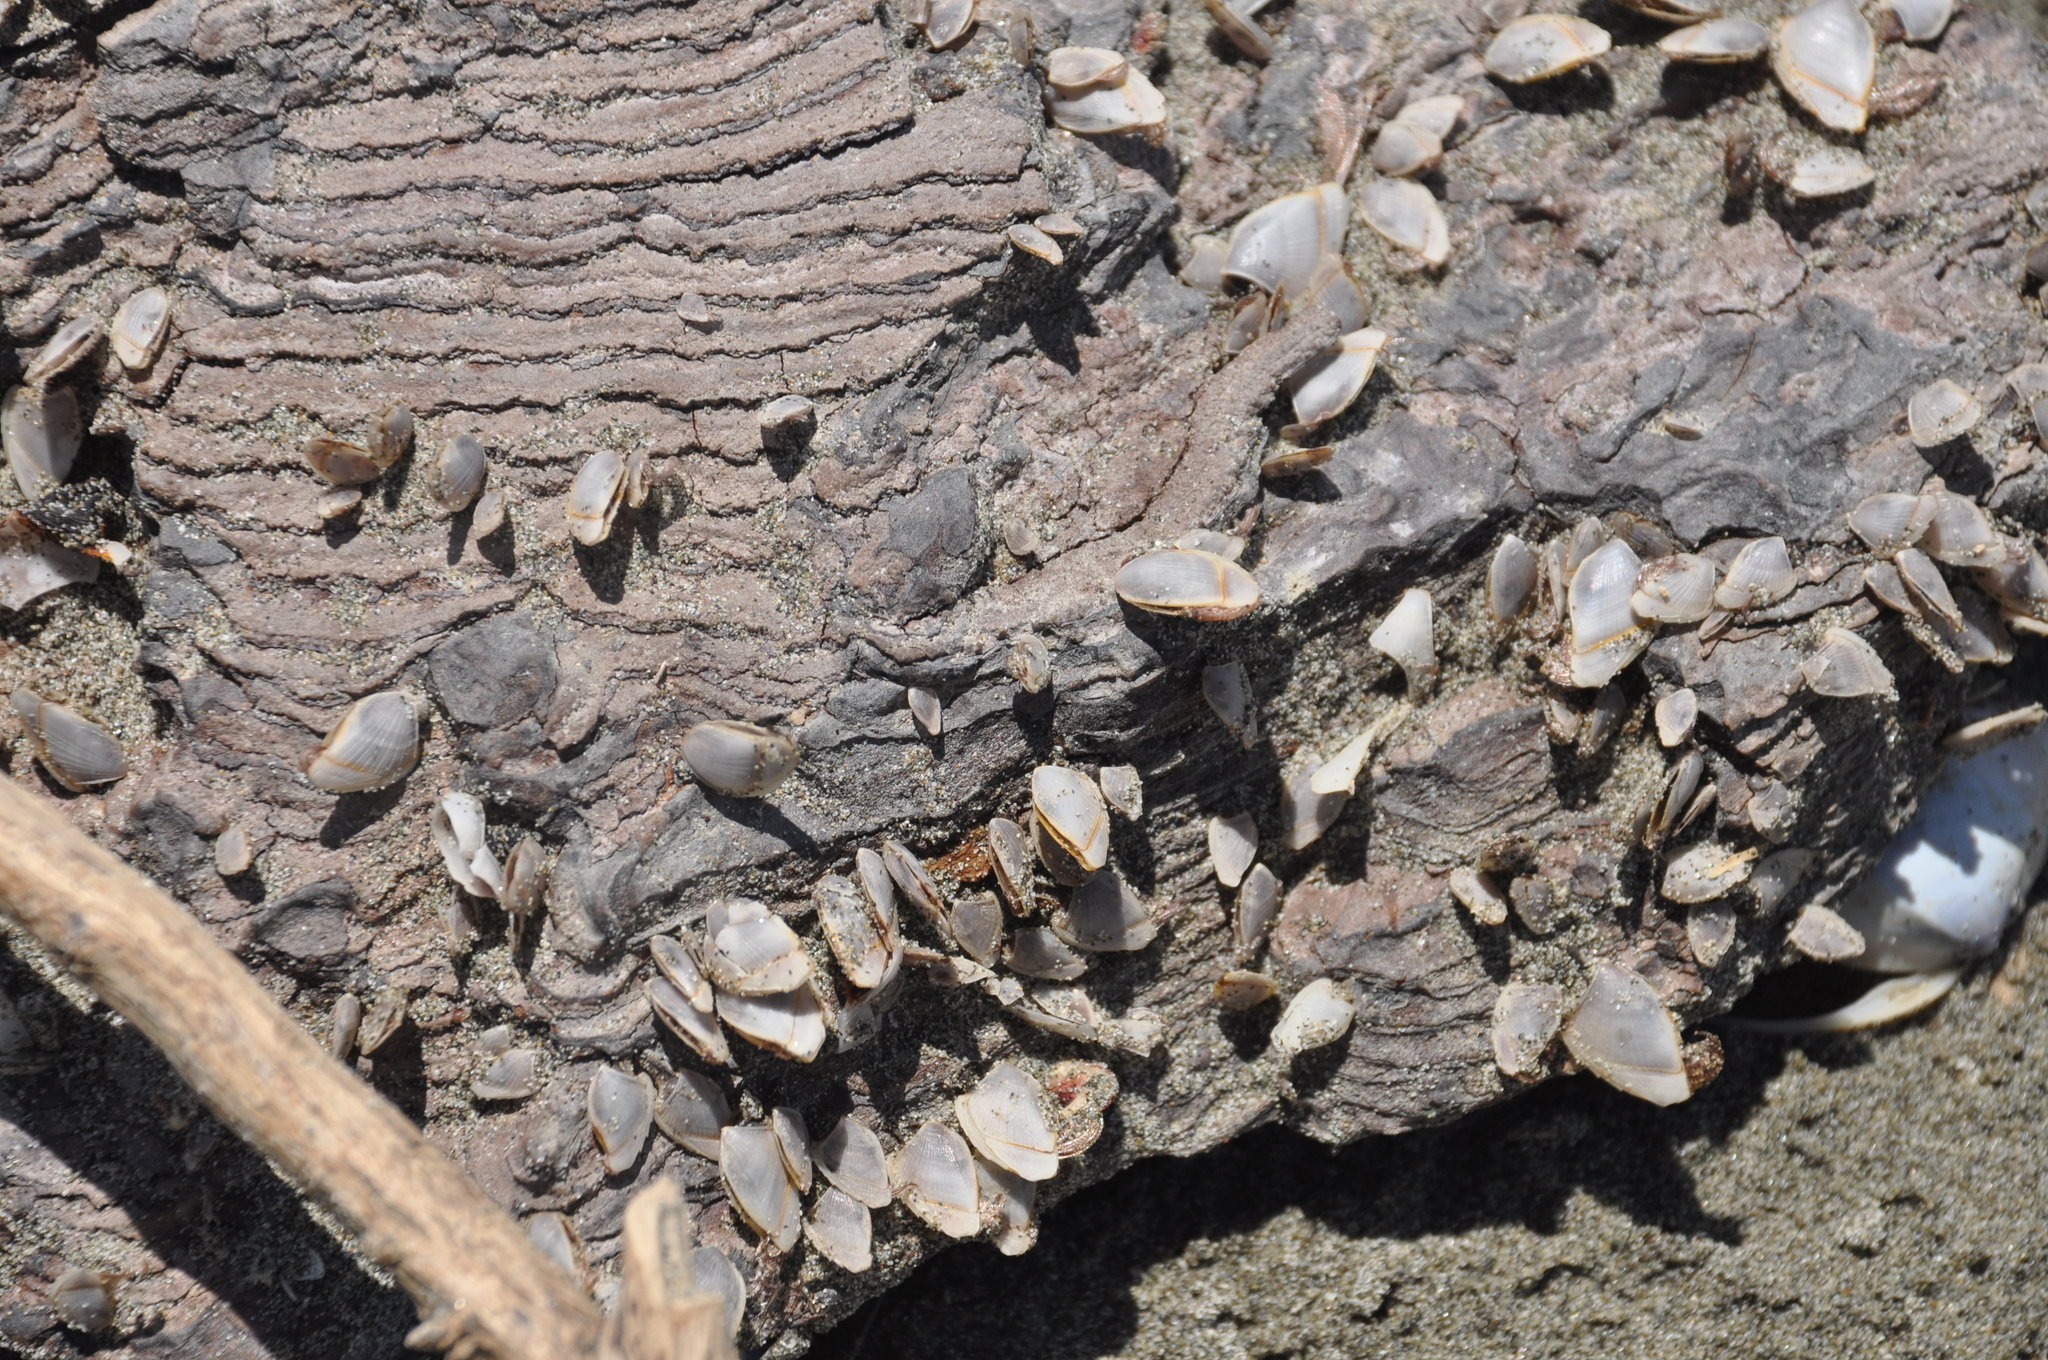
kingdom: Animalia
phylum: Arthropoda
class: Maxillopoda
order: Pedunculata
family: Lepadidae
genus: Lepas
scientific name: Lepas anatifera
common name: Common goose barnacle
